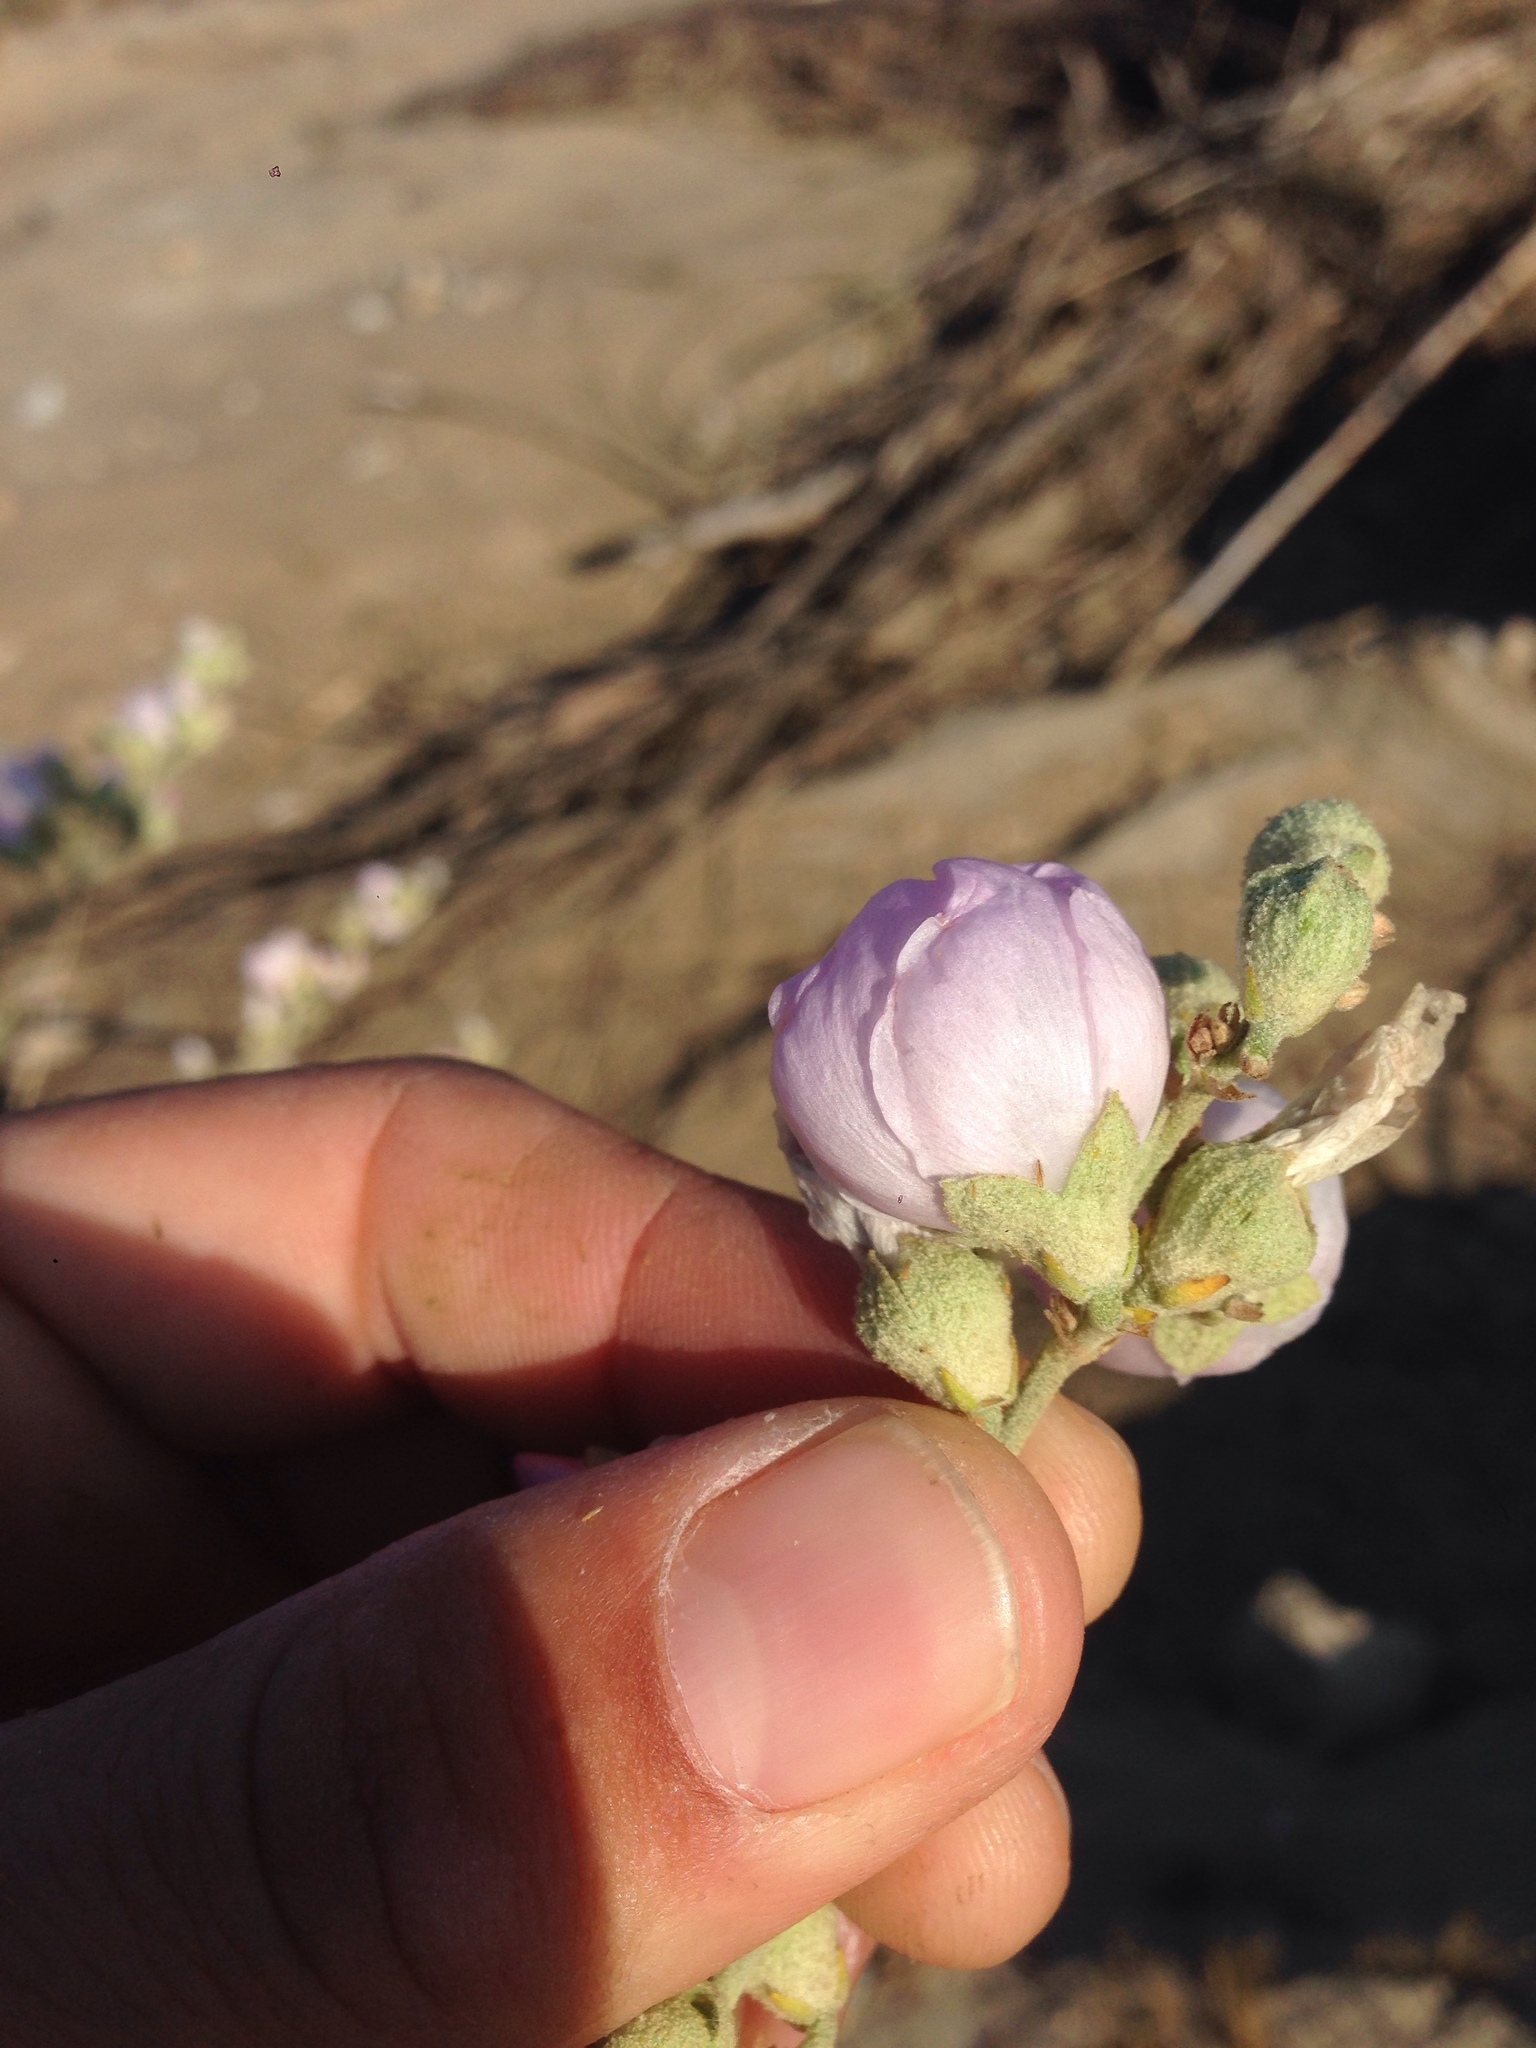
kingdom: Plantae
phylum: Tracheophyta
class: Magnoliopsida
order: Malvales
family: Malvaceae
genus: Malacothamnus
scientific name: Malacothamnus fasciculatus
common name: Sant cruz island bush-mallow
